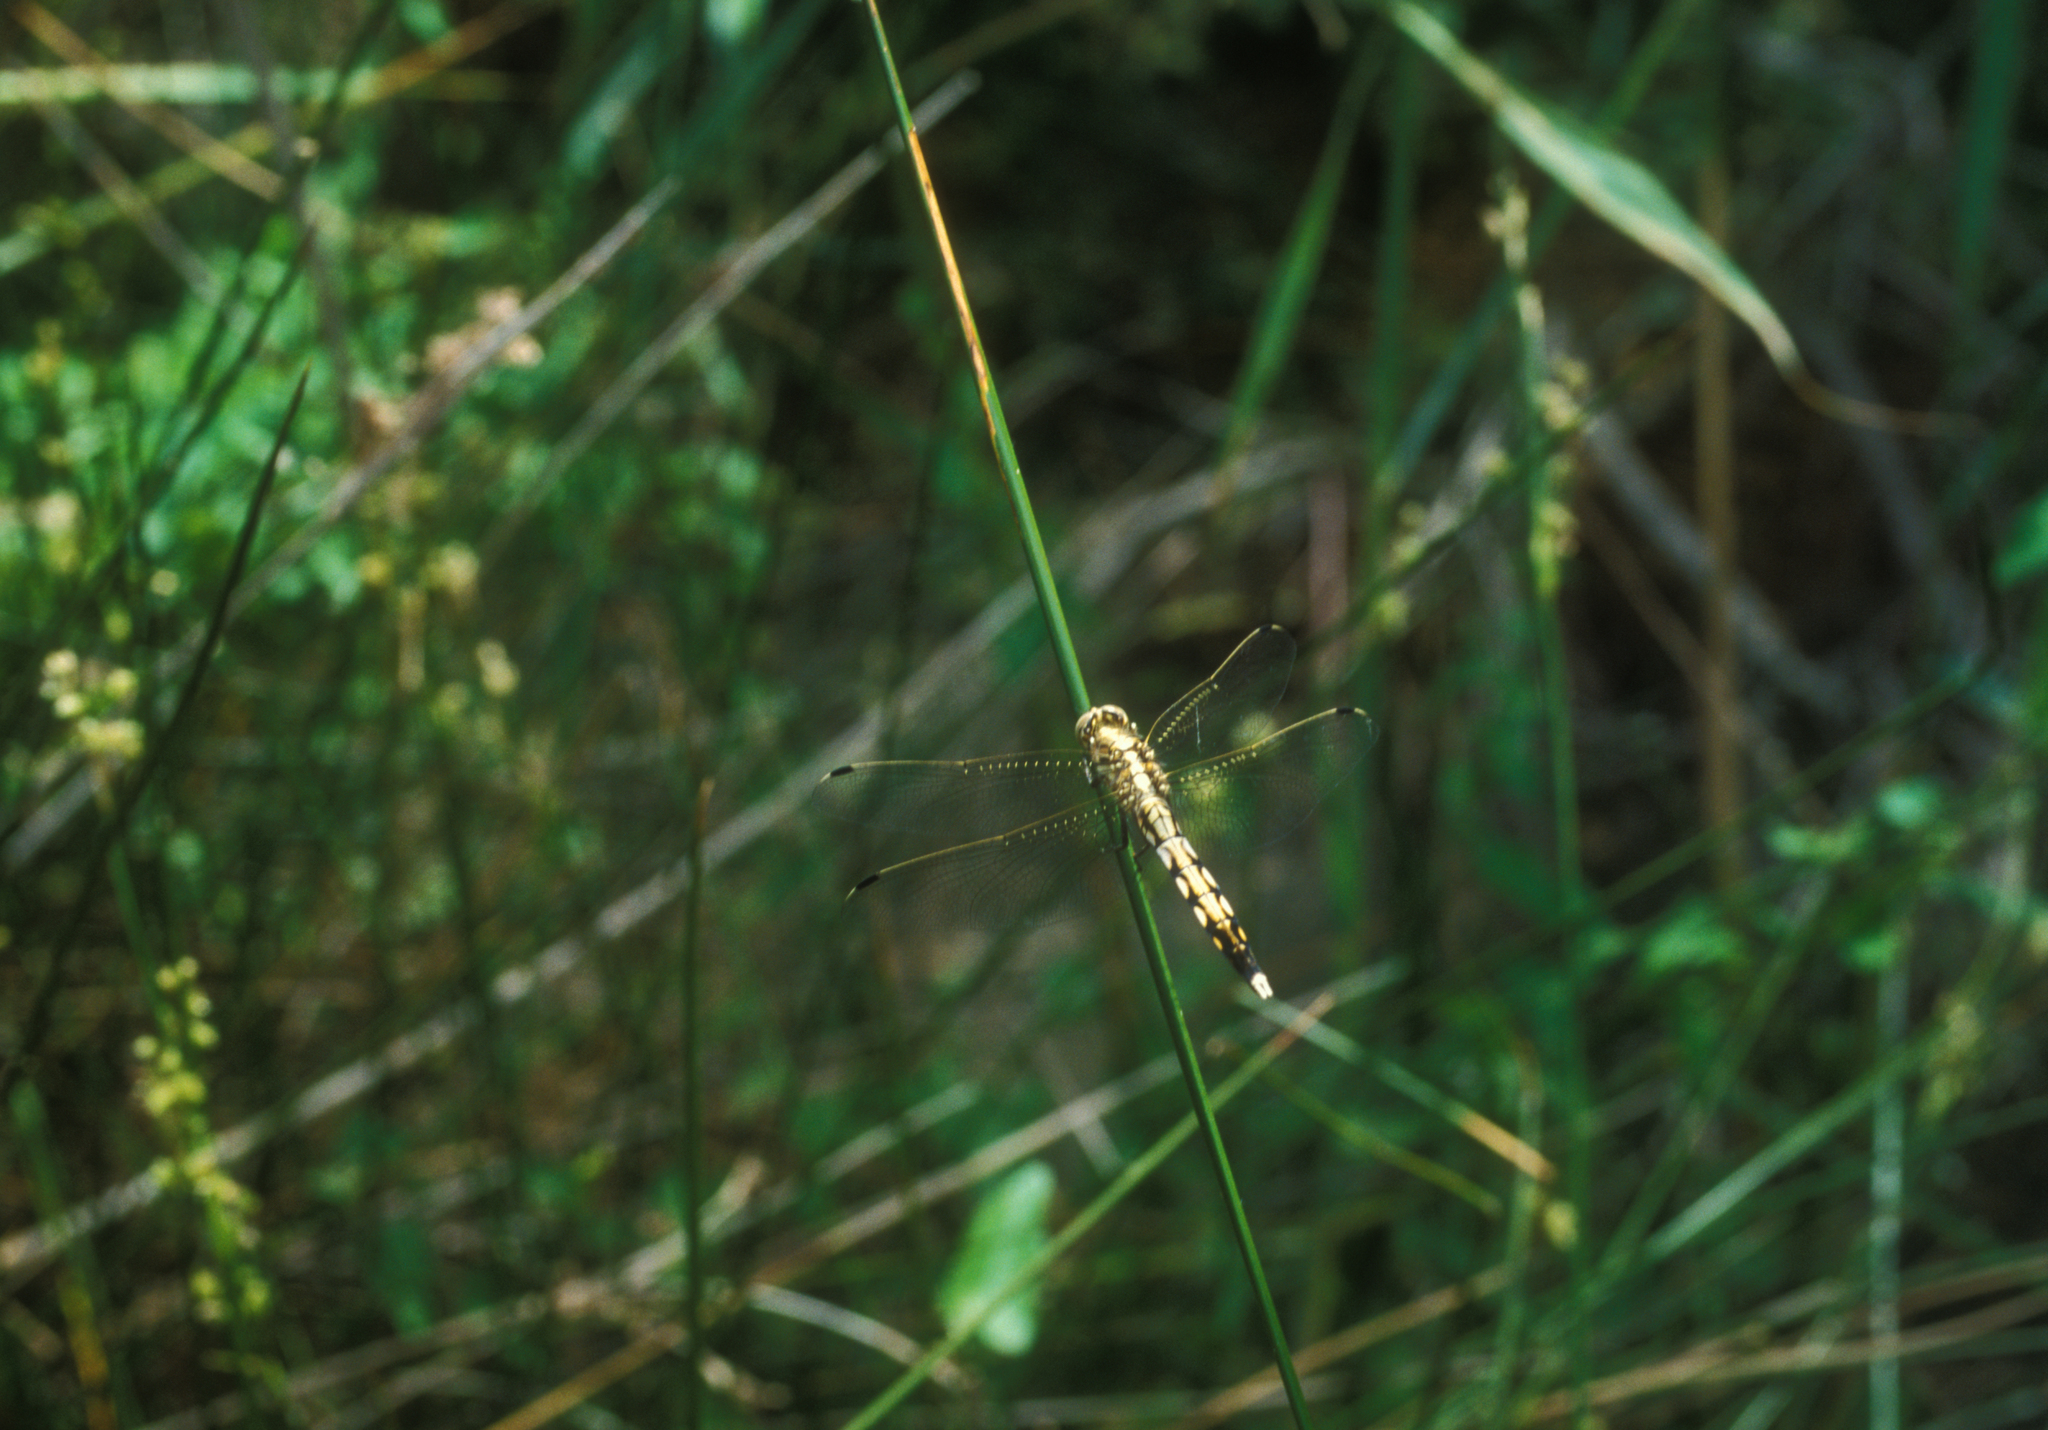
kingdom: Animalia
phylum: Arthropoda
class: Insecta
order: Odonata
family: Libellulidae
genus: Orthetrum
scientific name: Orthetrum albistylum
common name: White-tailed skimmer
